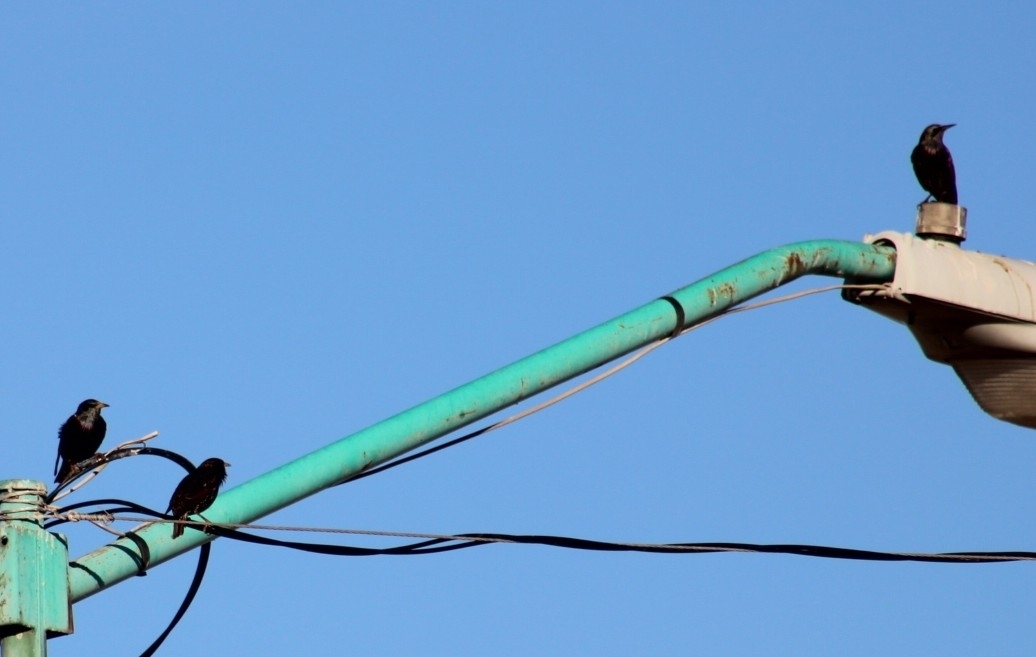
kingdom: Animalia
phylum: Chordata
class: Aves
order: Passeriformes
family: Sturnidae
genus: Sturnus
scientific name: Sturnus vulgaris
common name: Common starling
